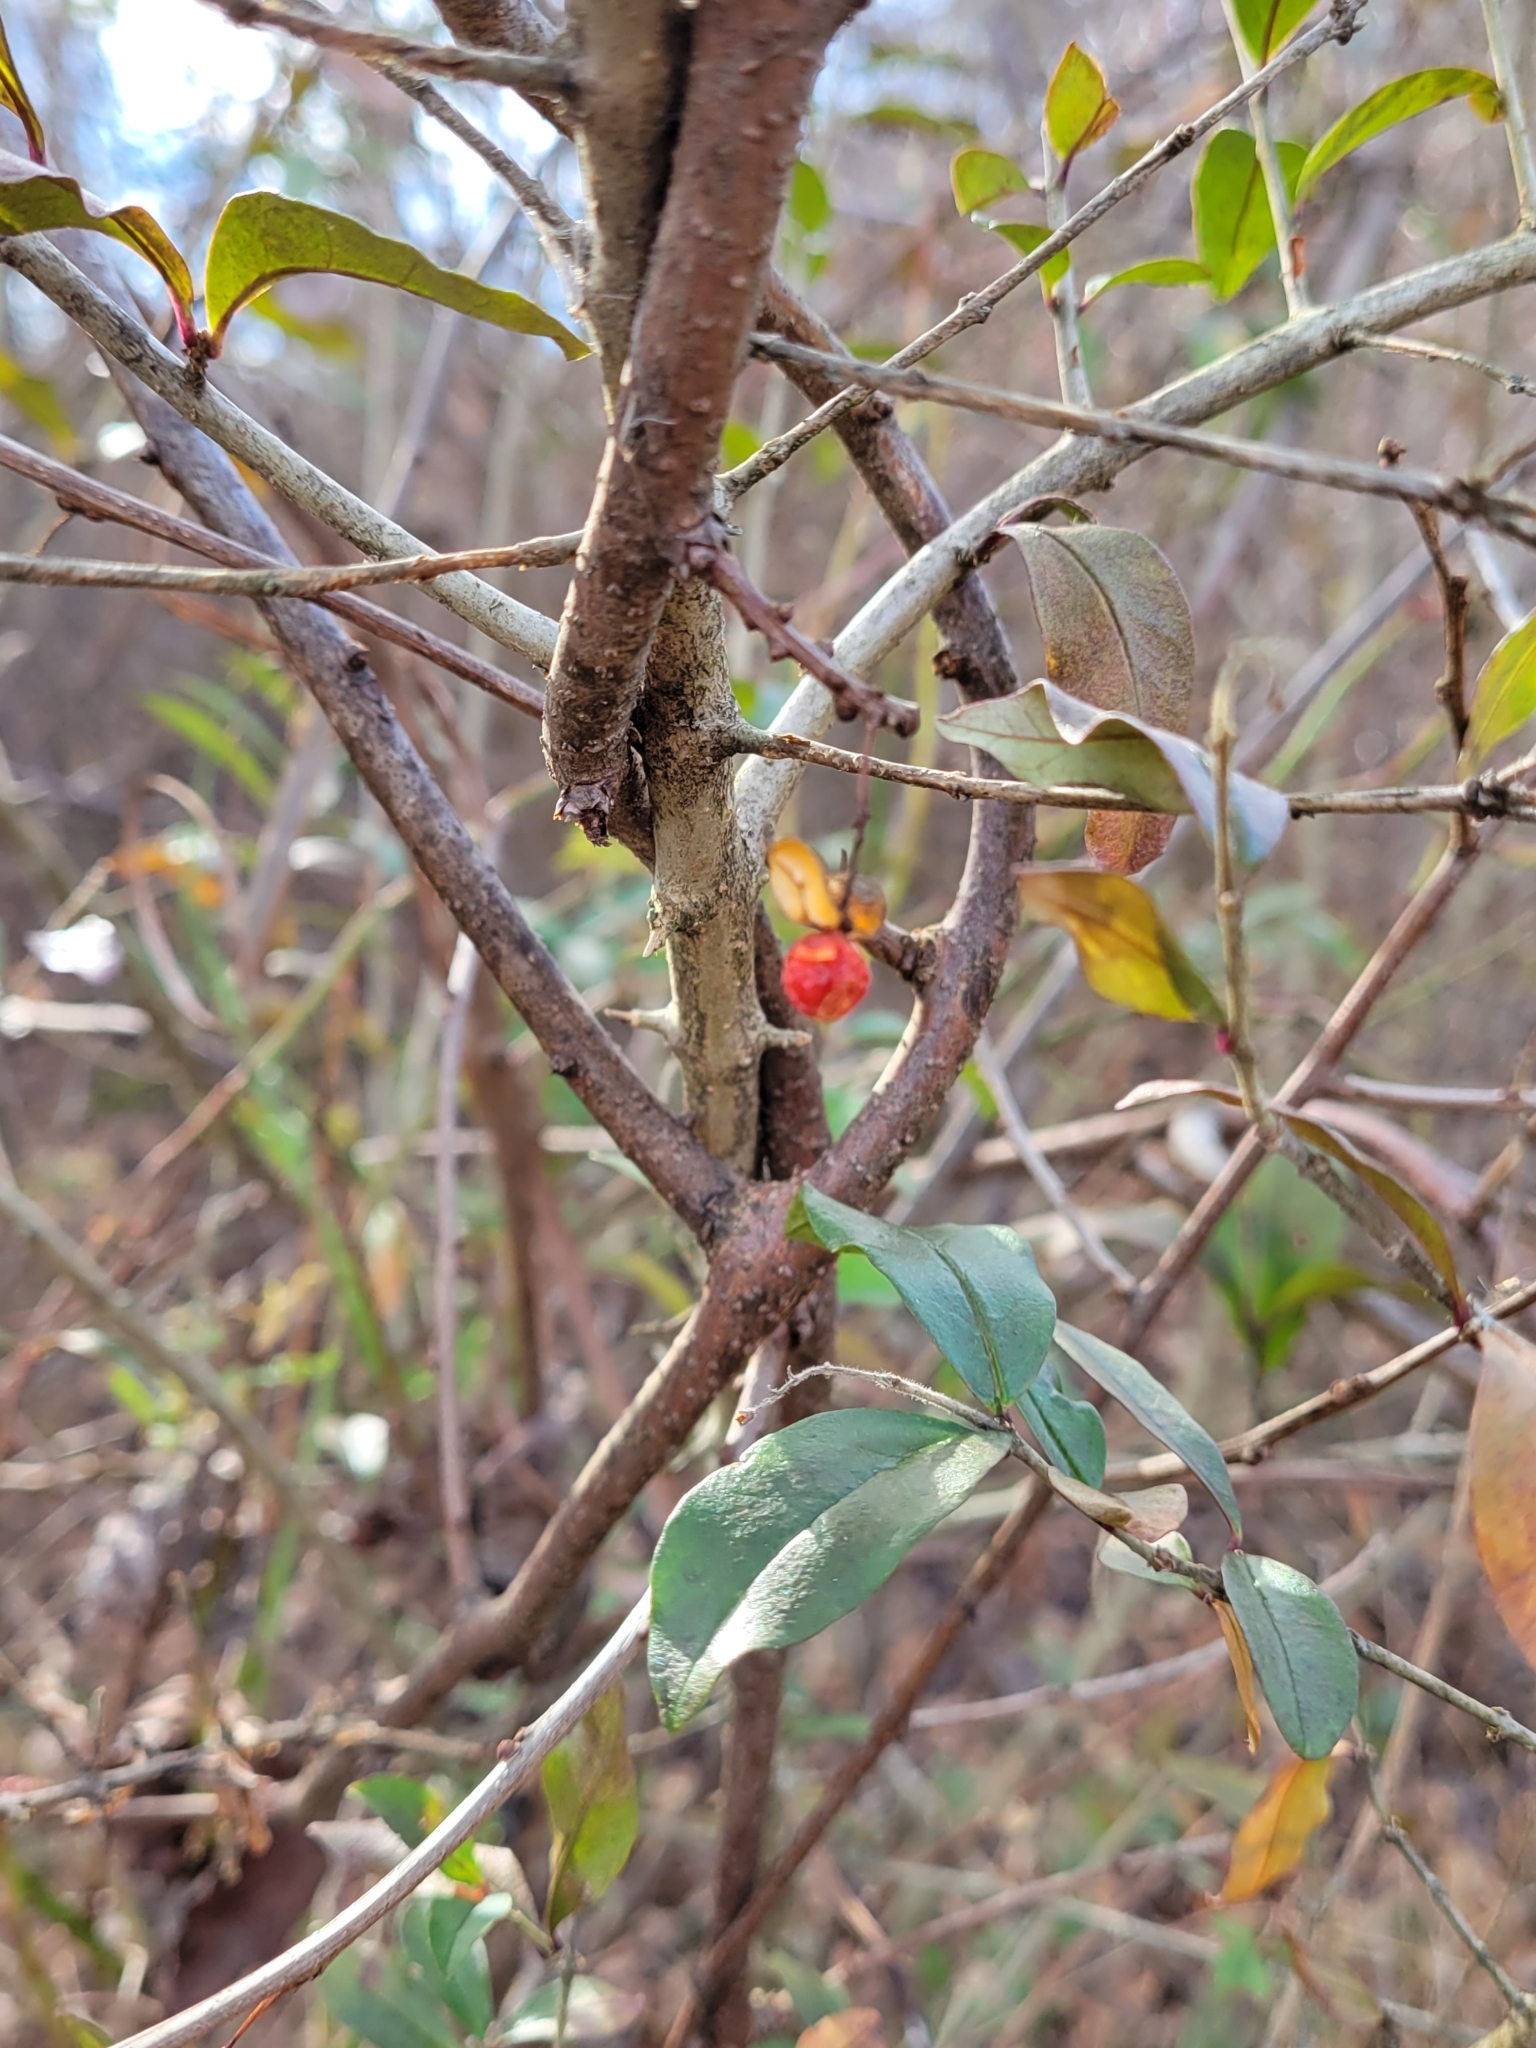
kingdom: Plantae
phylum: Tracheophyta
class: Magnoliopsida
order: Celastrales
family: Celastraceae
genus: Celastrus
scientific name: Celastrus orbiculatus
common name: Oriental bittersweet
